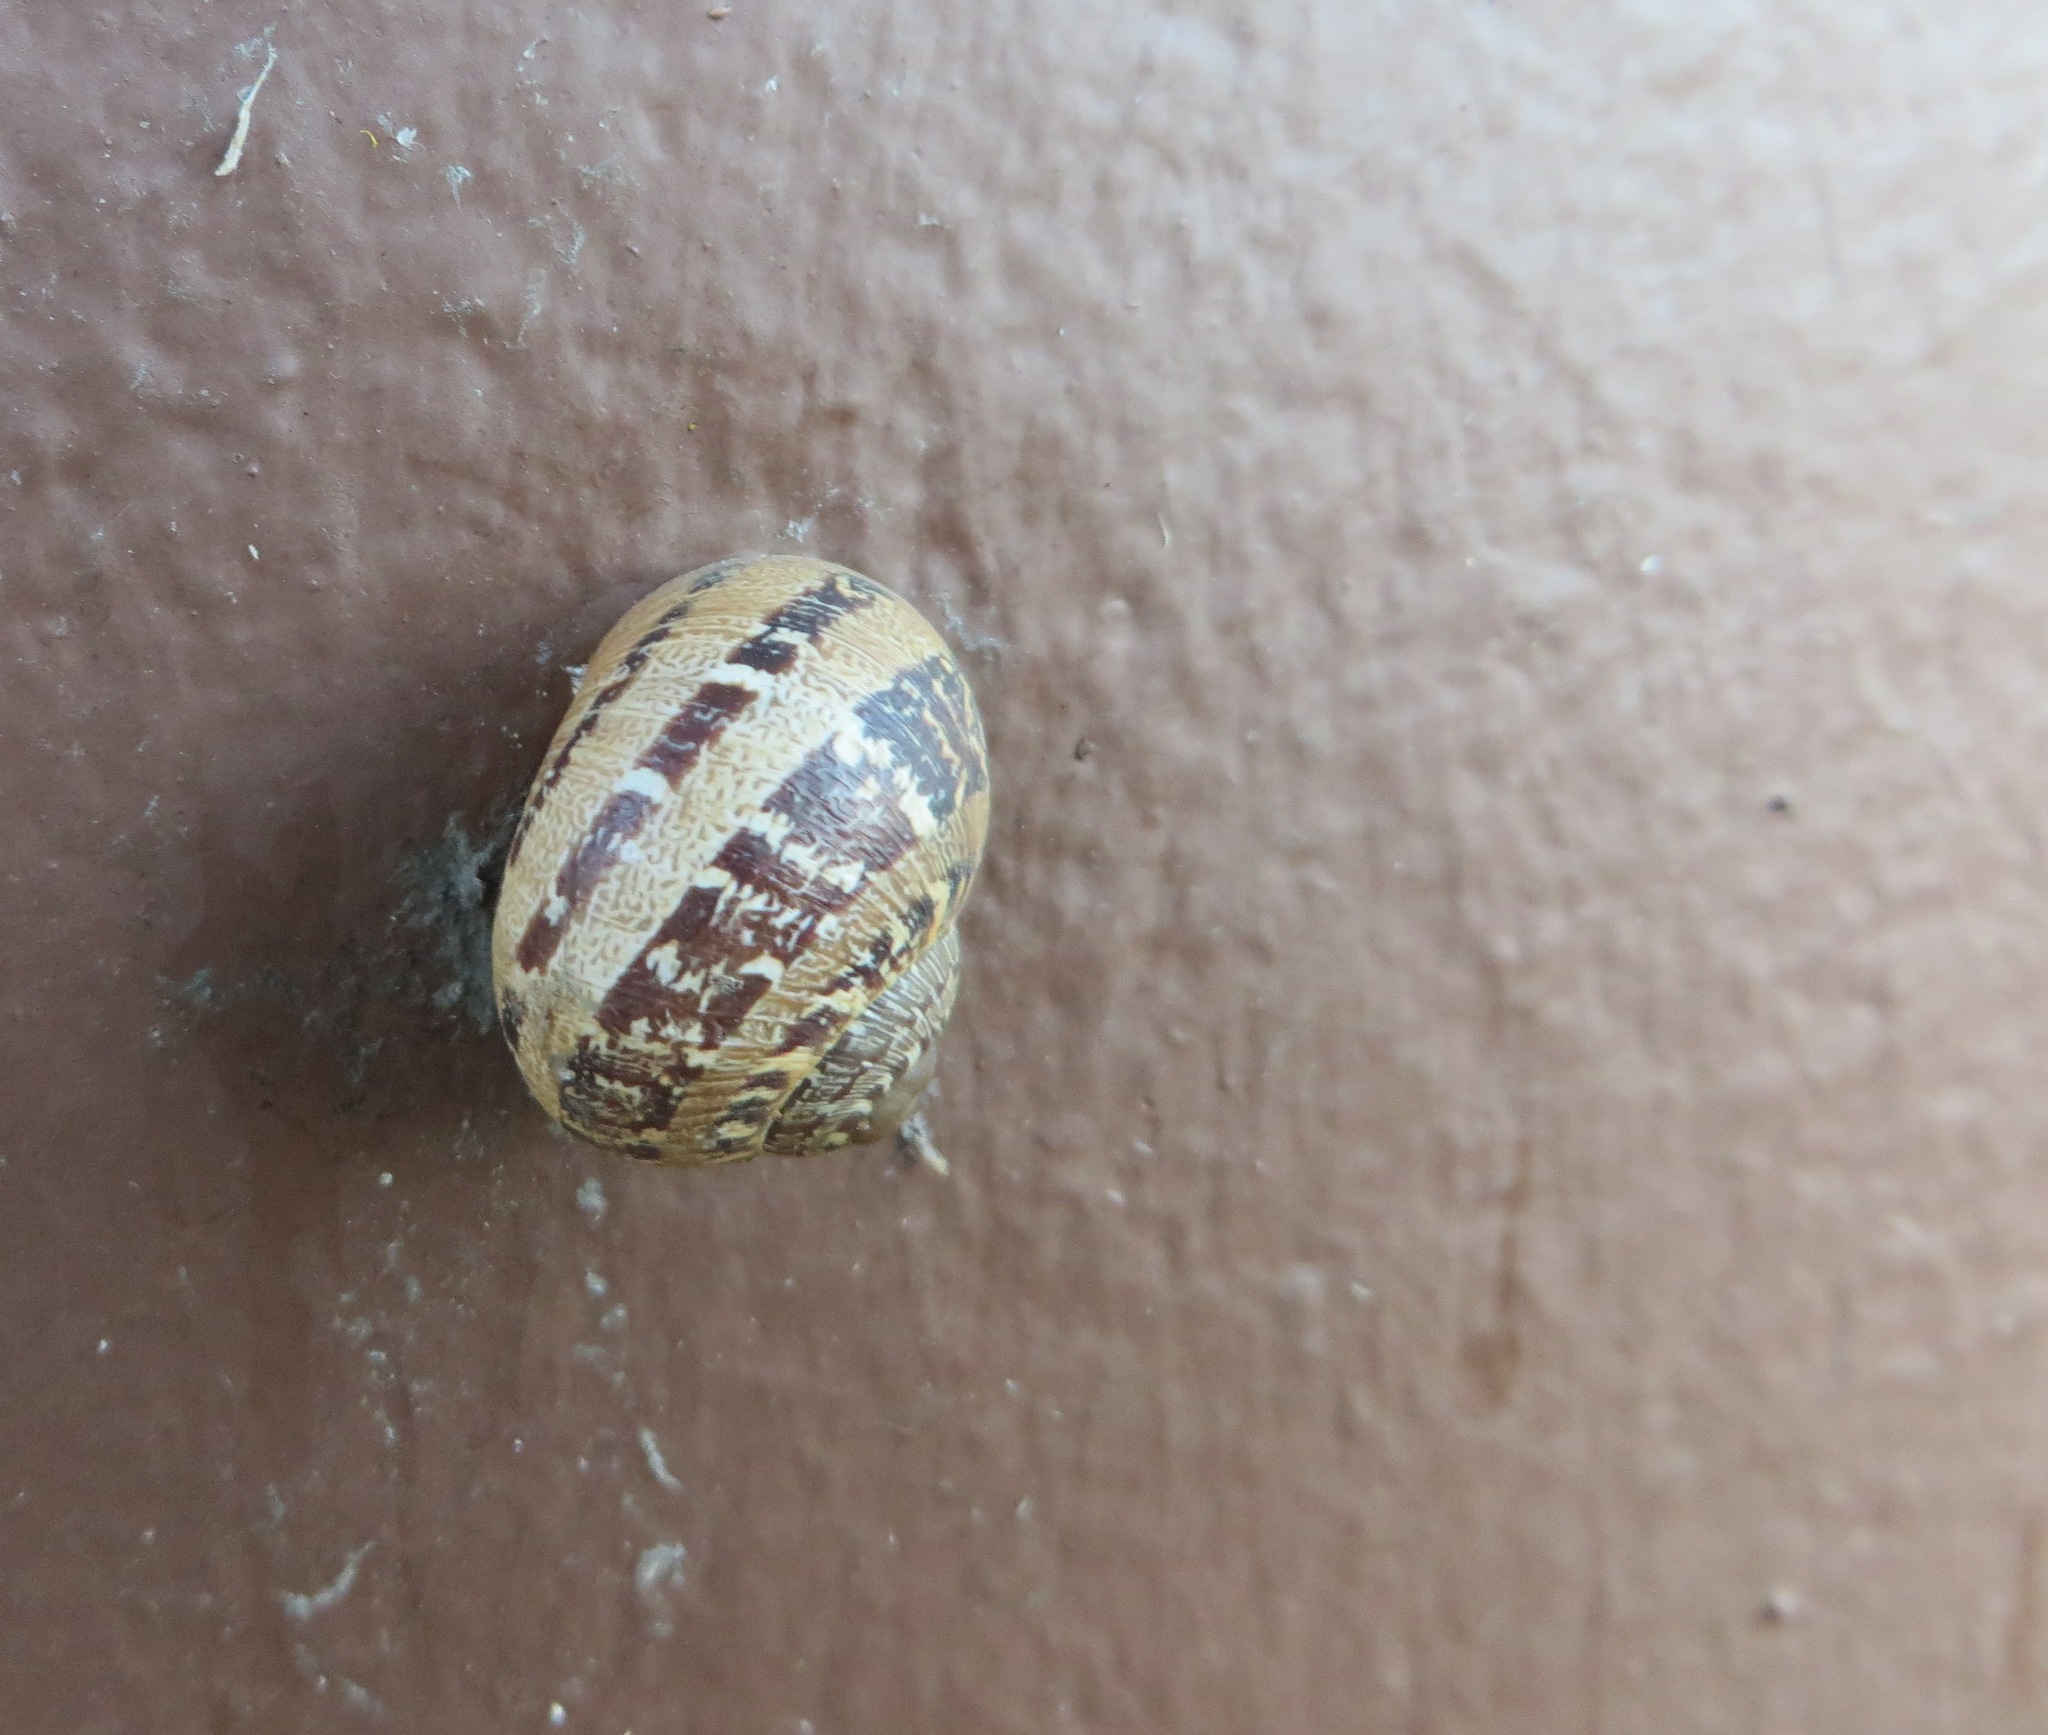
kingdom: Animalia
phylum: Mollusca
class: Gastropoda
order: Stylommatophora
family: Helicidae
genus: Cornu
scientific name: Cornu aspersum
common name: Brown garden snail
